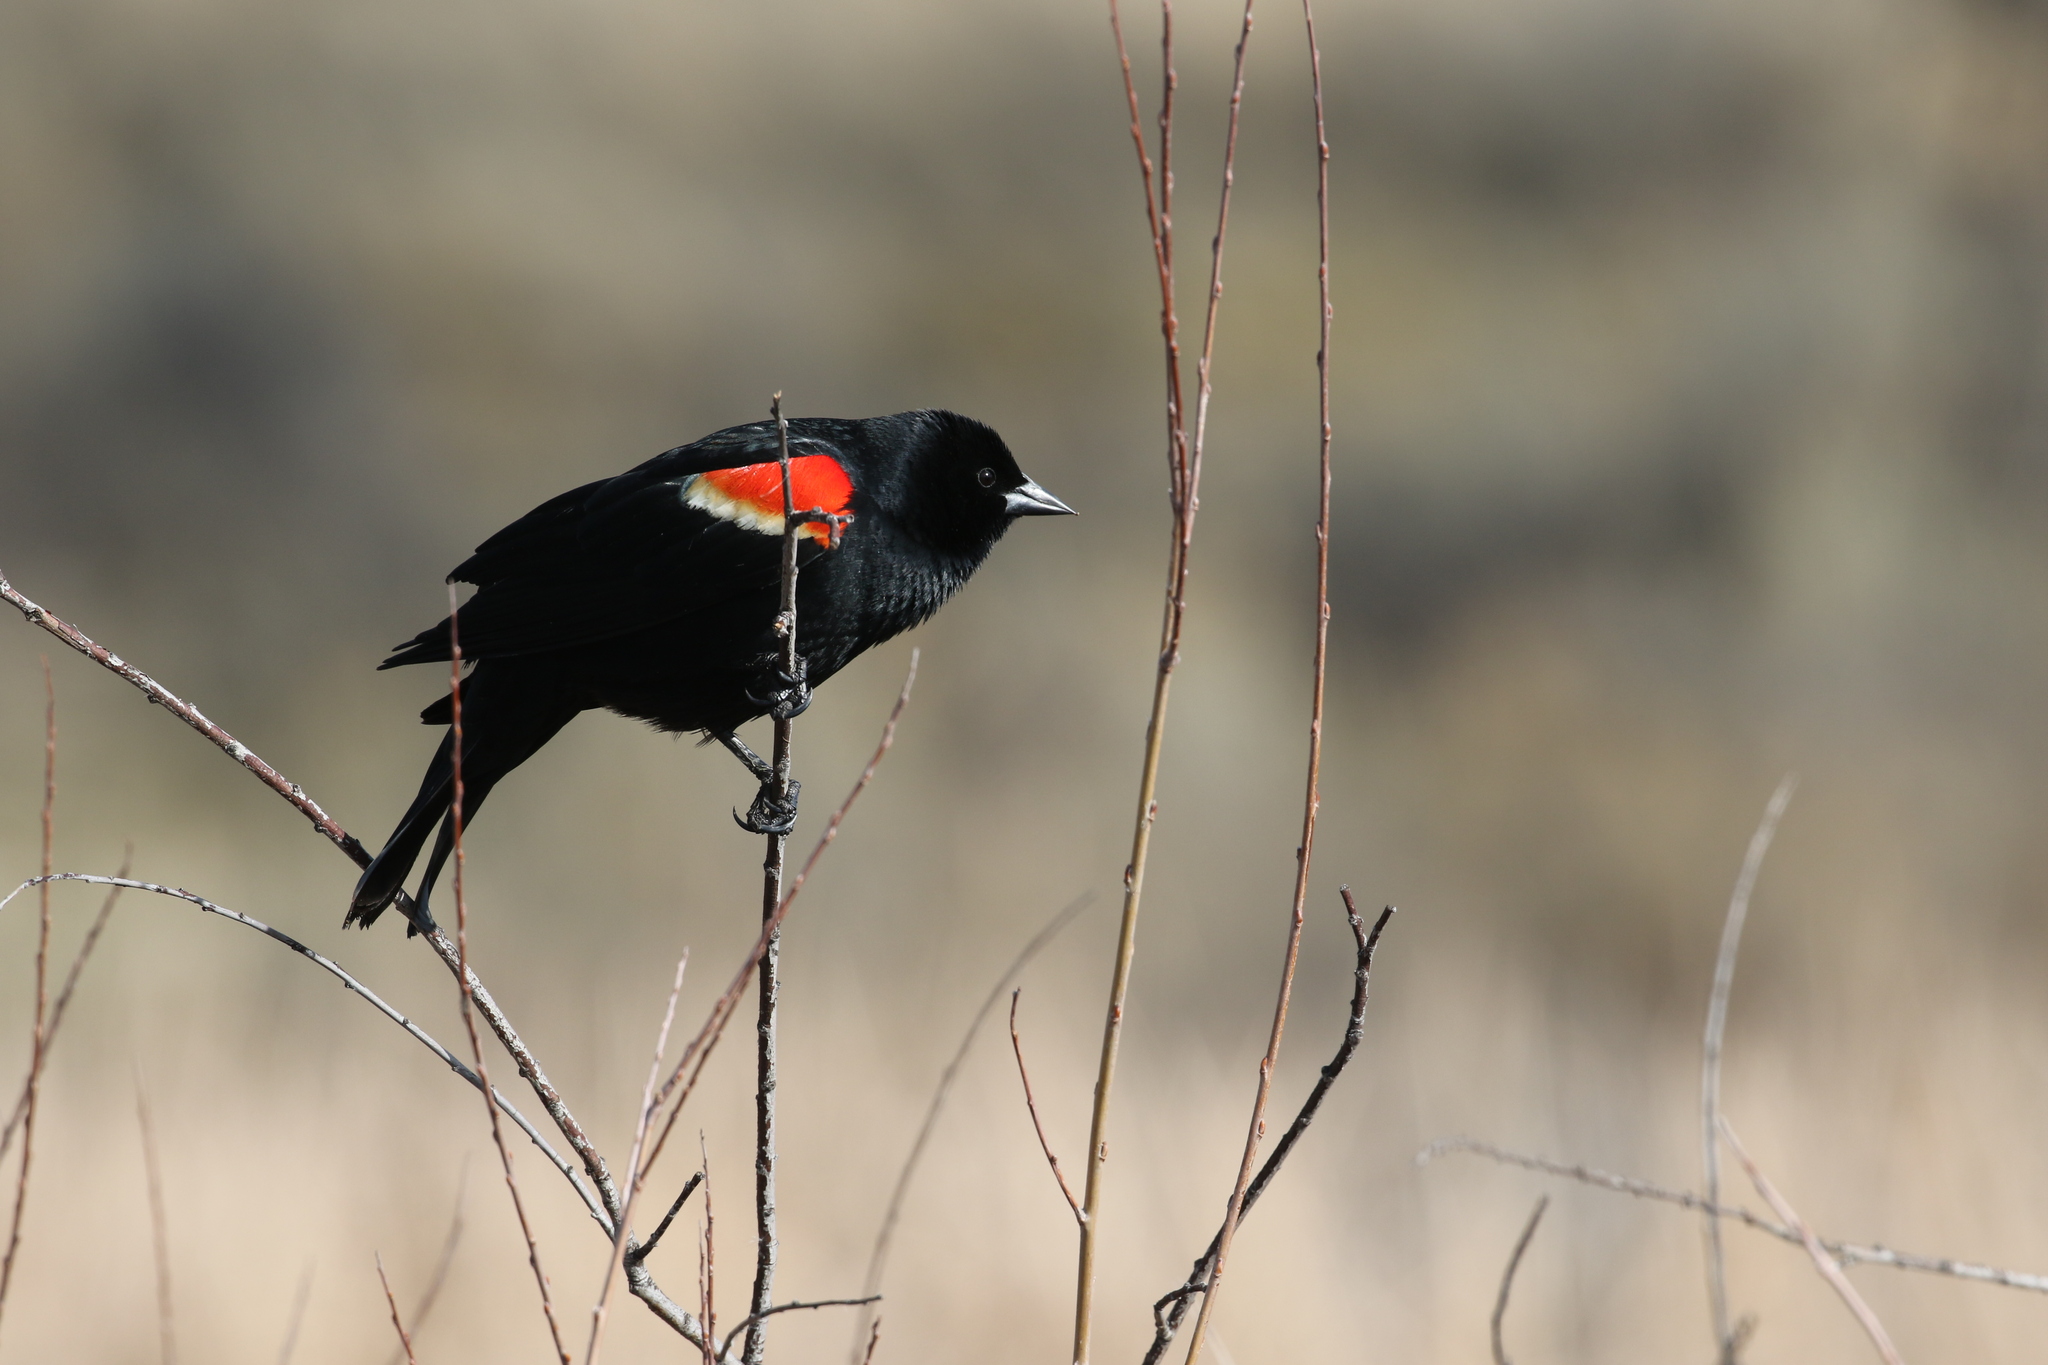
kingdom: Animalia
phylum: Chordata
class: Aves
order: Passeriformes
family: Icteridae
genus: Agelaius
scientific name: Agelaius phoeniceus
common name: Red-winged blackbird
